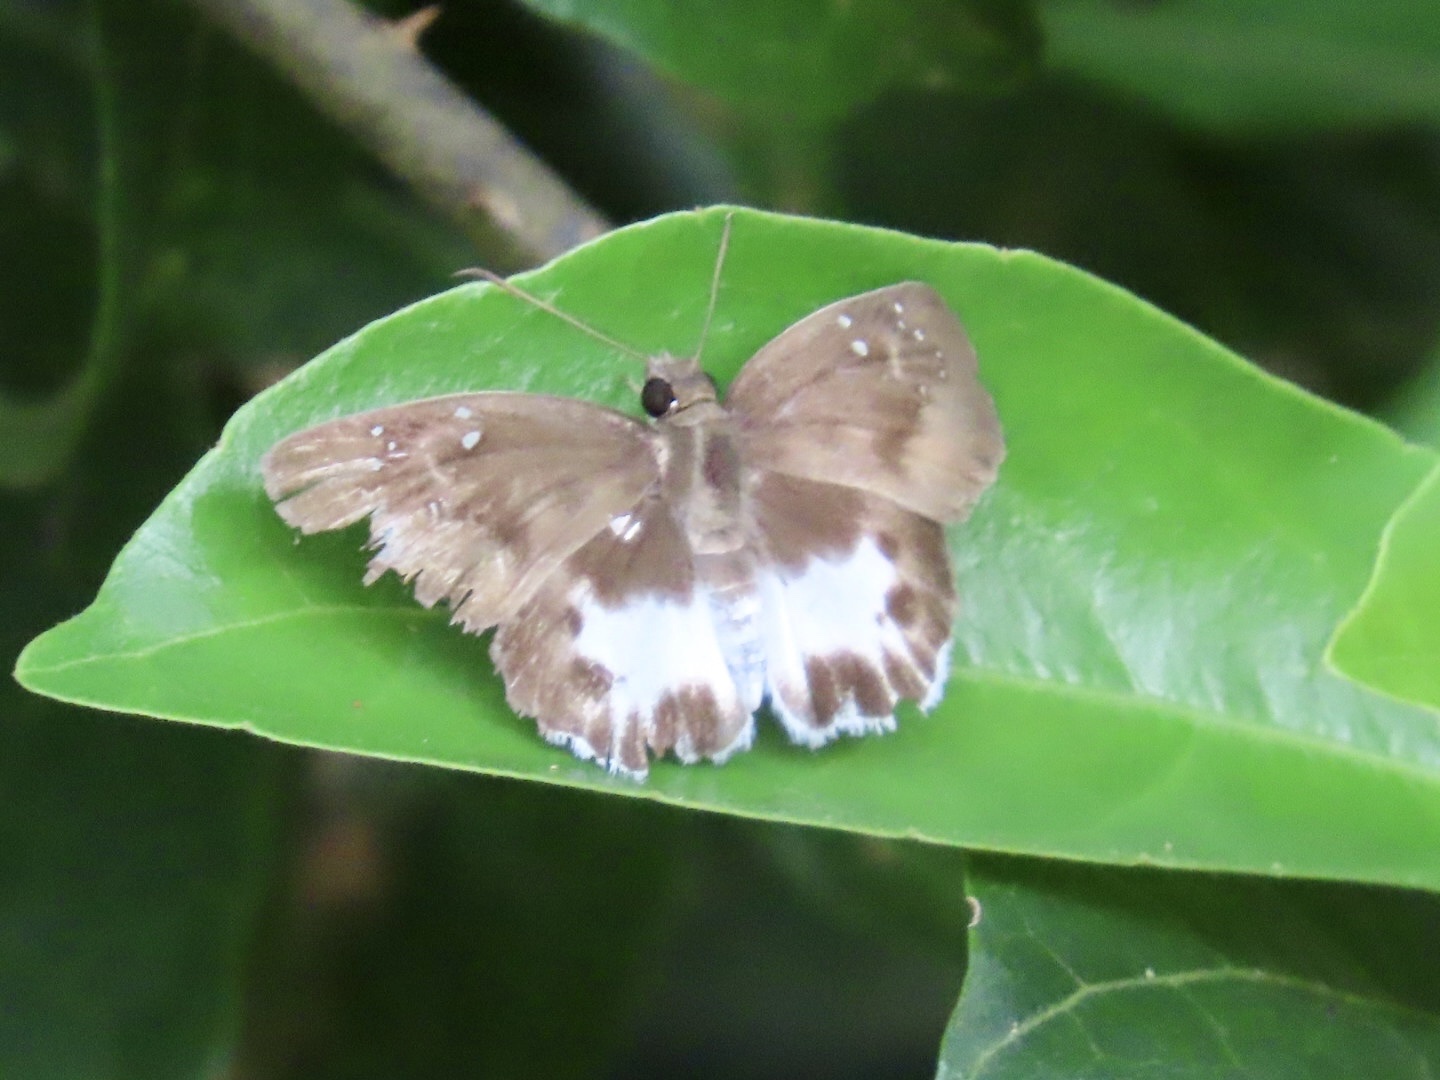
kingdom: Animalia
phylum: Arthropoda
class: Insecta
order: Lepidoptera
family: Hesperiidae
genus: Tagiades
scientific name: Tagiades litigiosa
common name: Water snow flat
